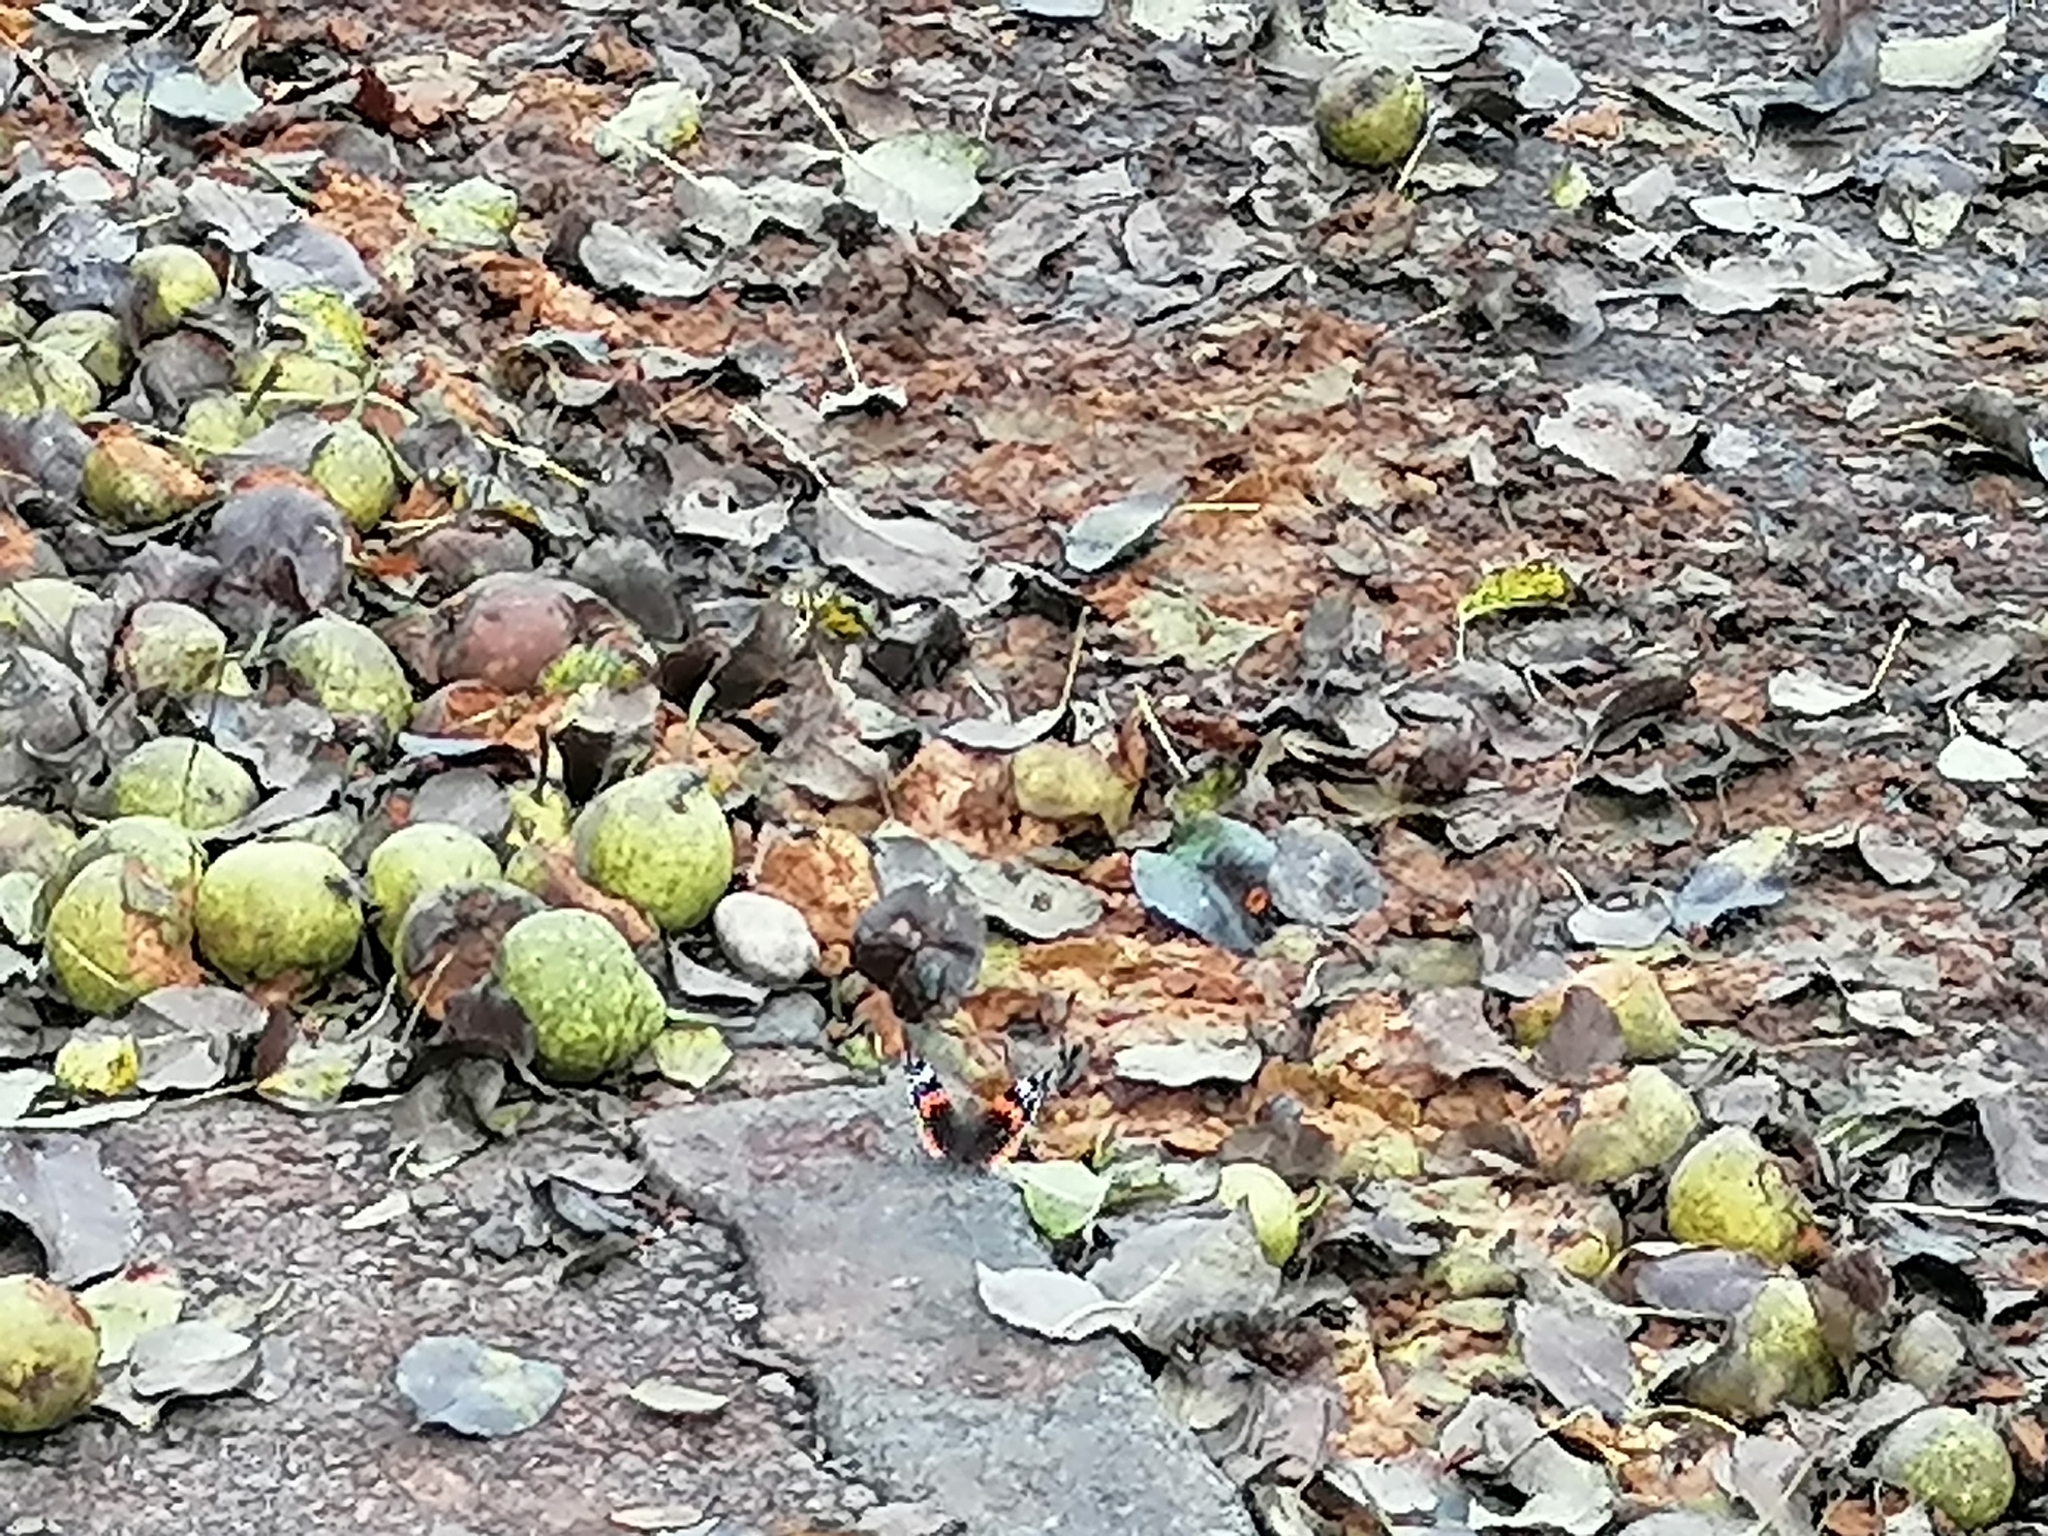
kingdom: Animalia
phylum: Arthropoda
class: Insecta
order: Lepidoptera
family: Nymphalidae
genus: Vanessa
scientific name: Vanessa atalanta
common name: Red admiral
